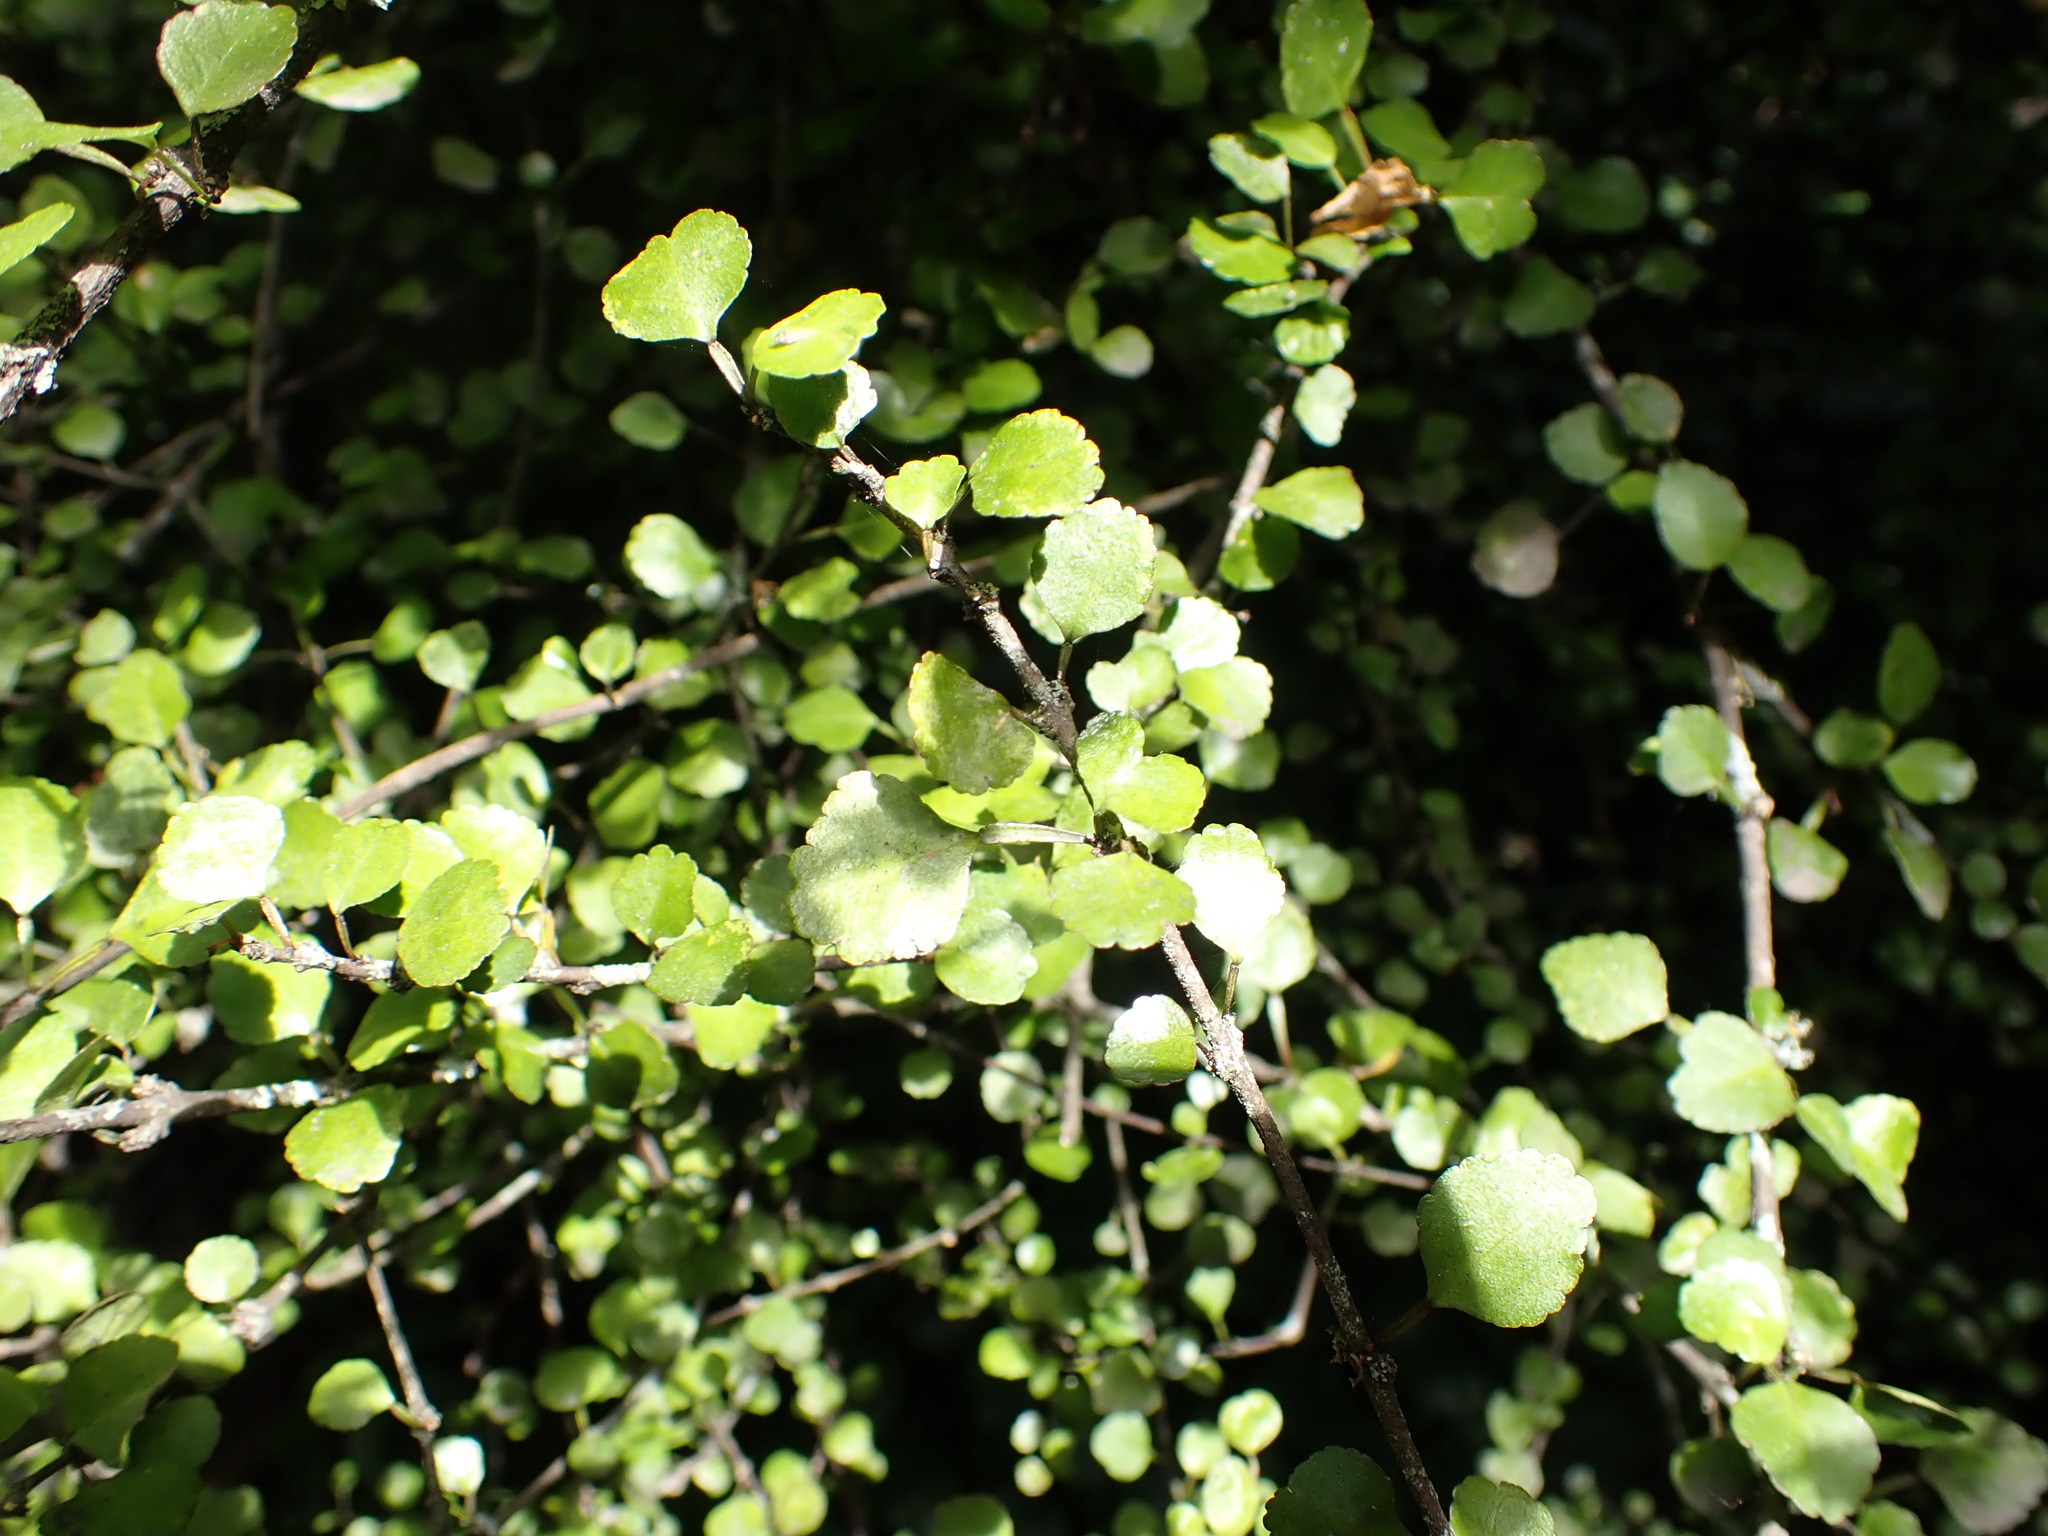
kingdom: Plantae
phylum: Tracheophyta
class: Magnoliopsida
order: Sapindales
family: Rutaceae
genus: Melicope
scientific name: Melicope simplex
